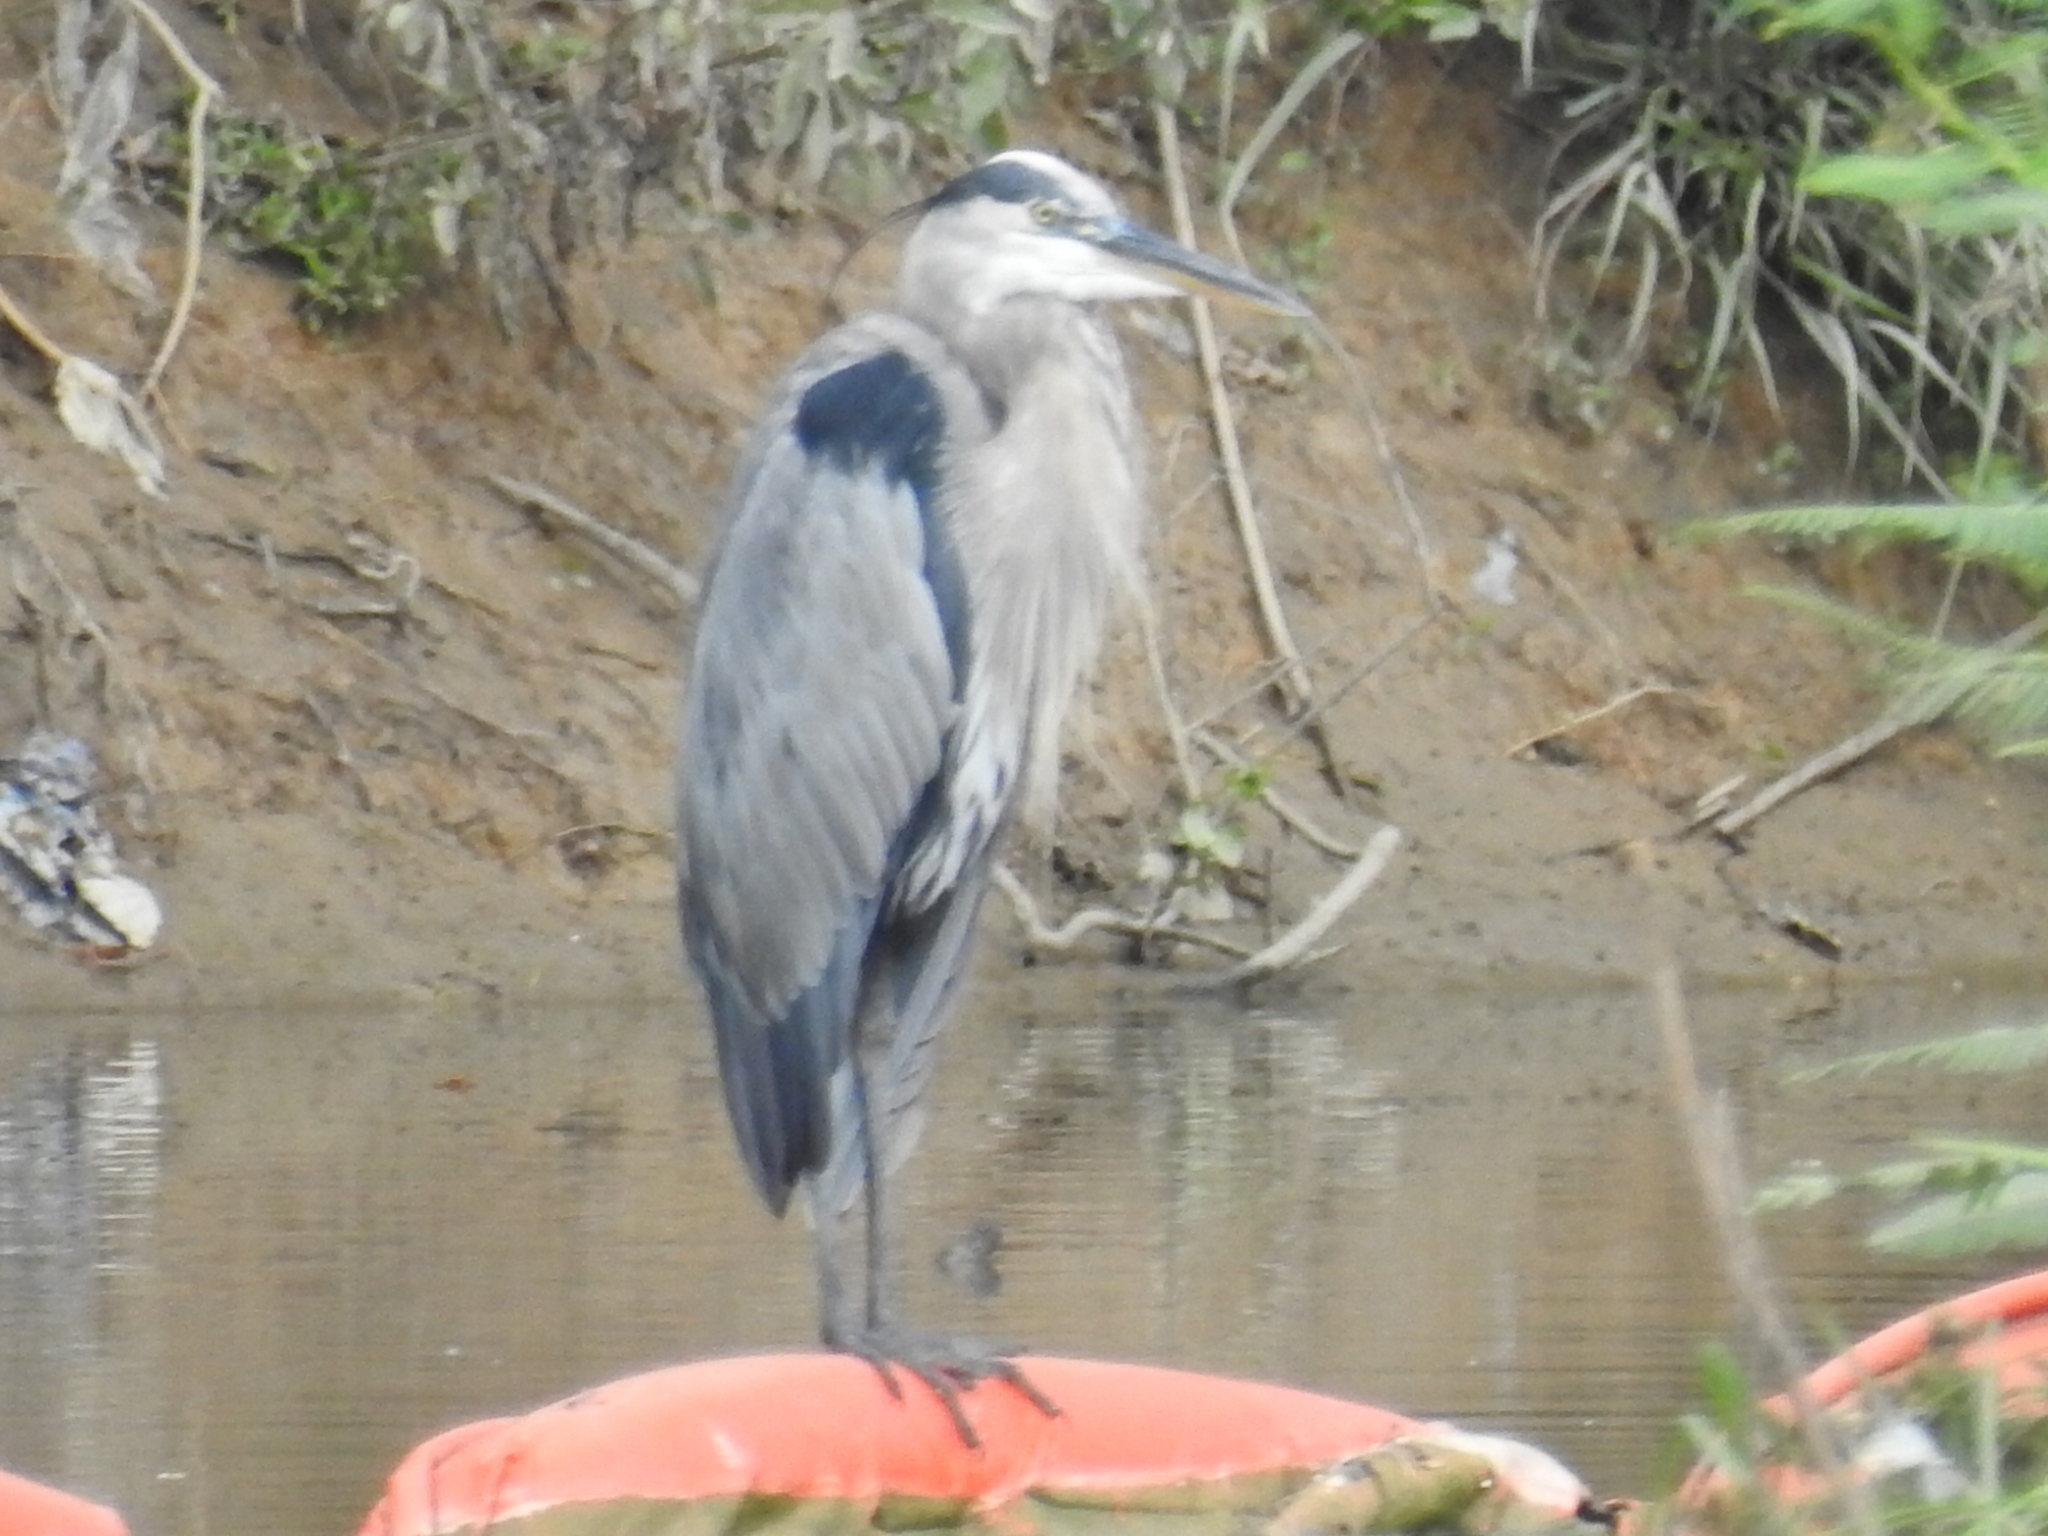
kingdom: Animalia
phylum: Chordata
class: Aves
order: Pelecaniformes
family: Ardeidae
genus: Ardea
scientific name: Ardea herodias
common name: Great blue heron
